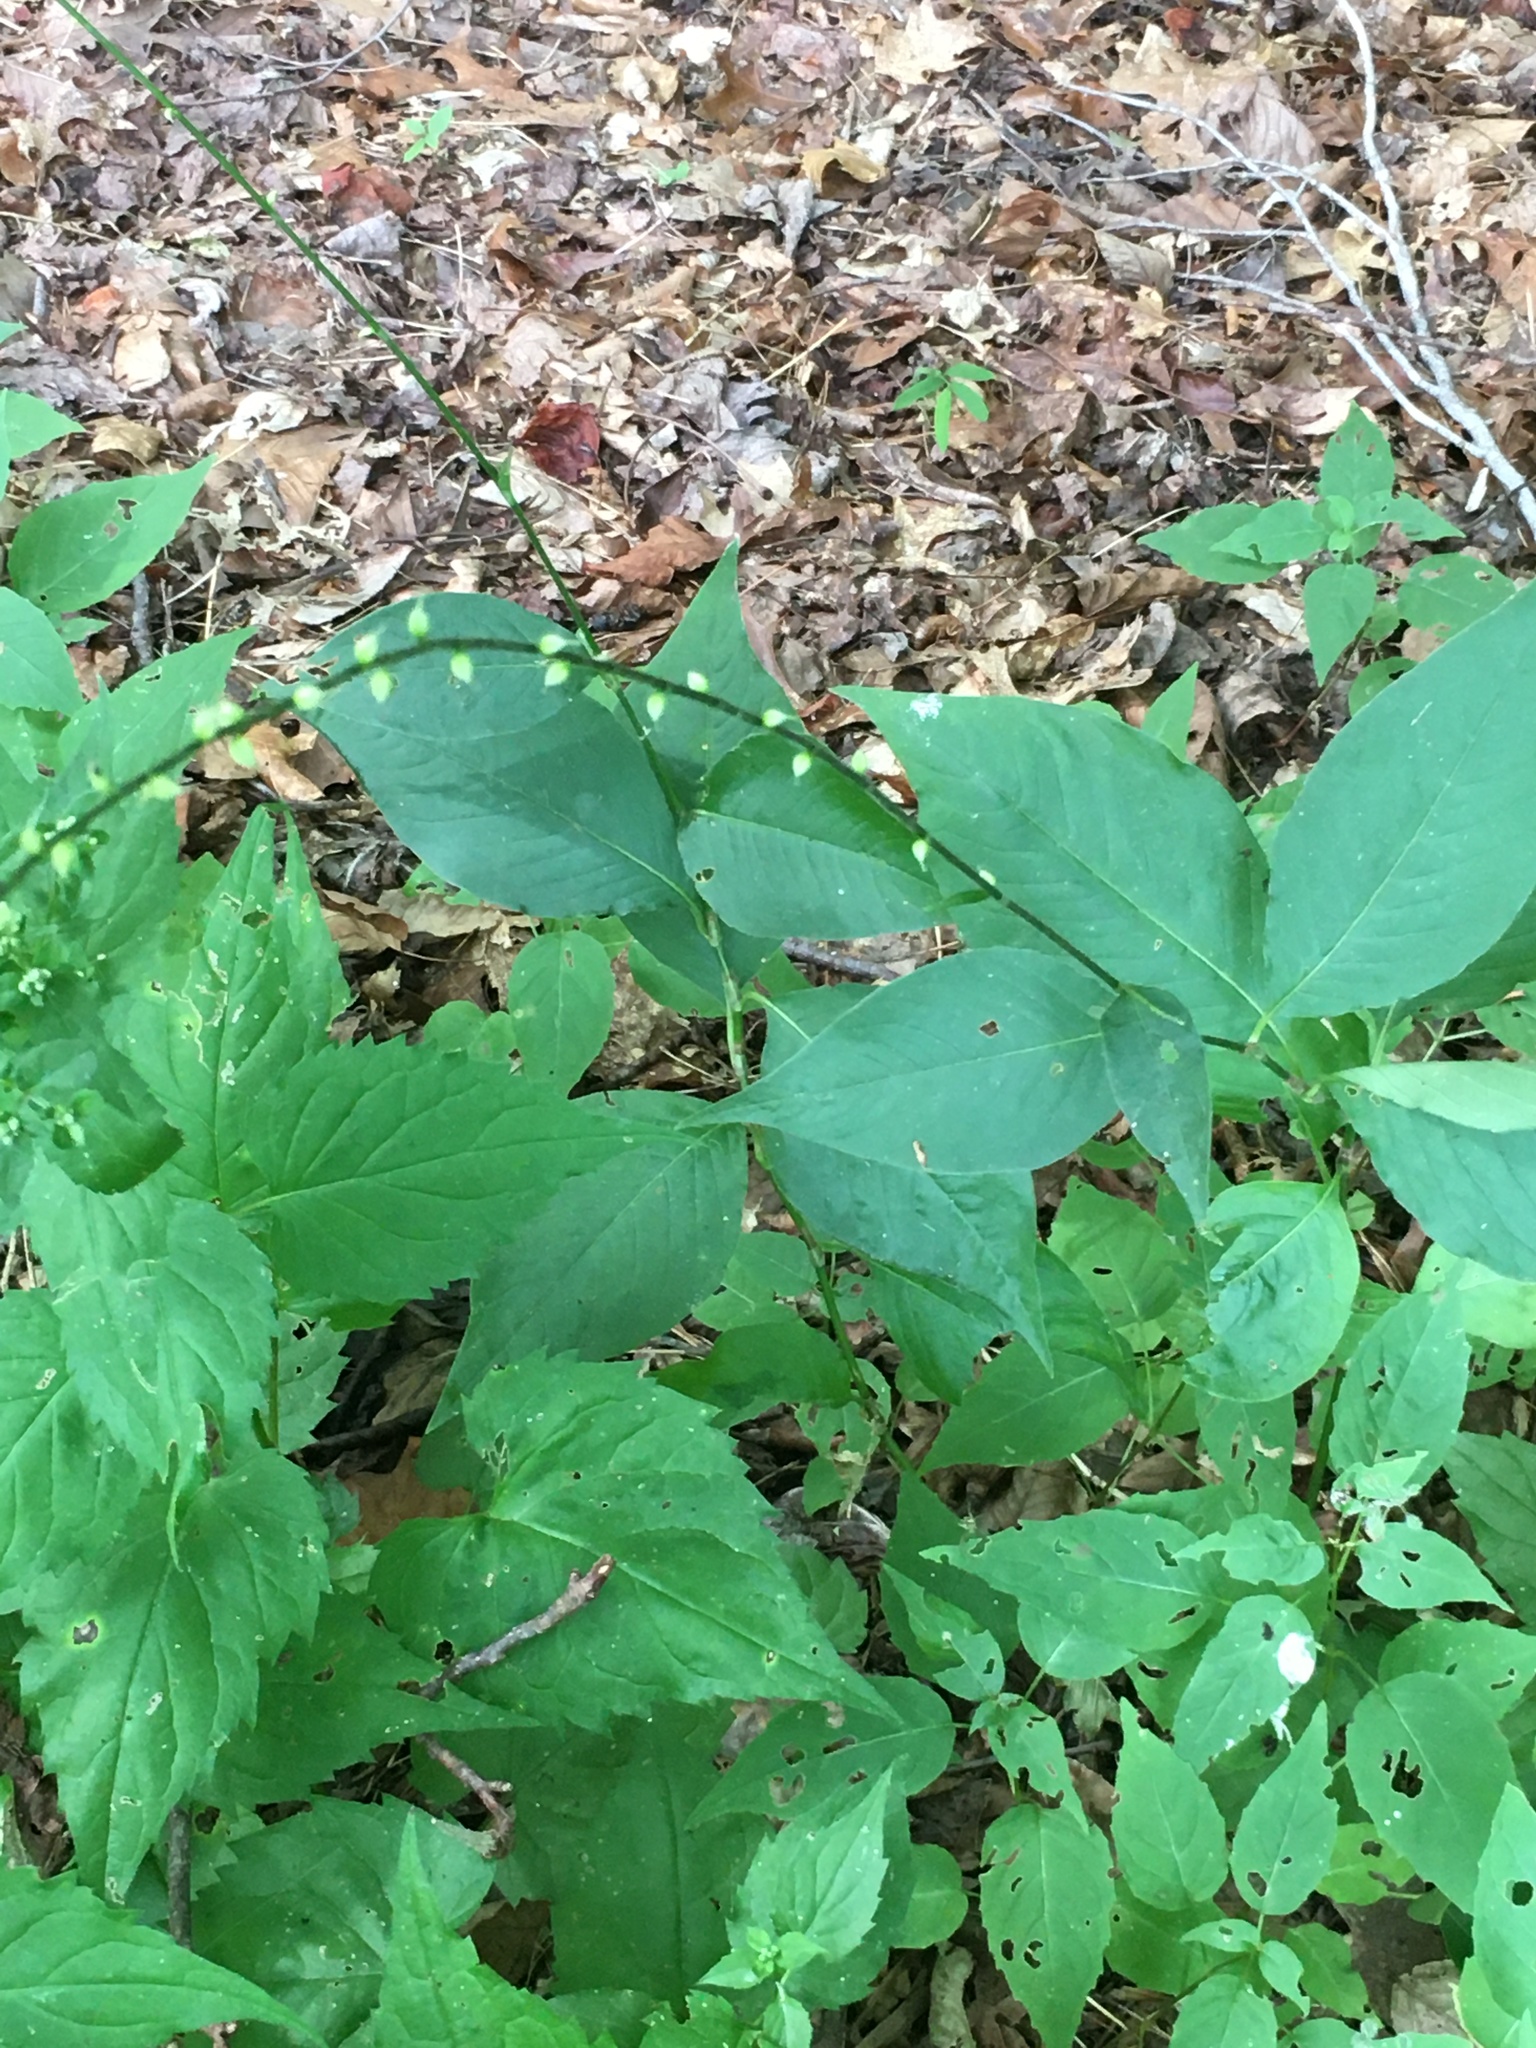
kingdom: Plantae
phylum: Tracheophyta
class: Magnoliopsida
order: Caryophyllales
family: Polygonaceae
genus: Persicaria
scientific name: Persicaria virginiana
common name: Jumpseed
